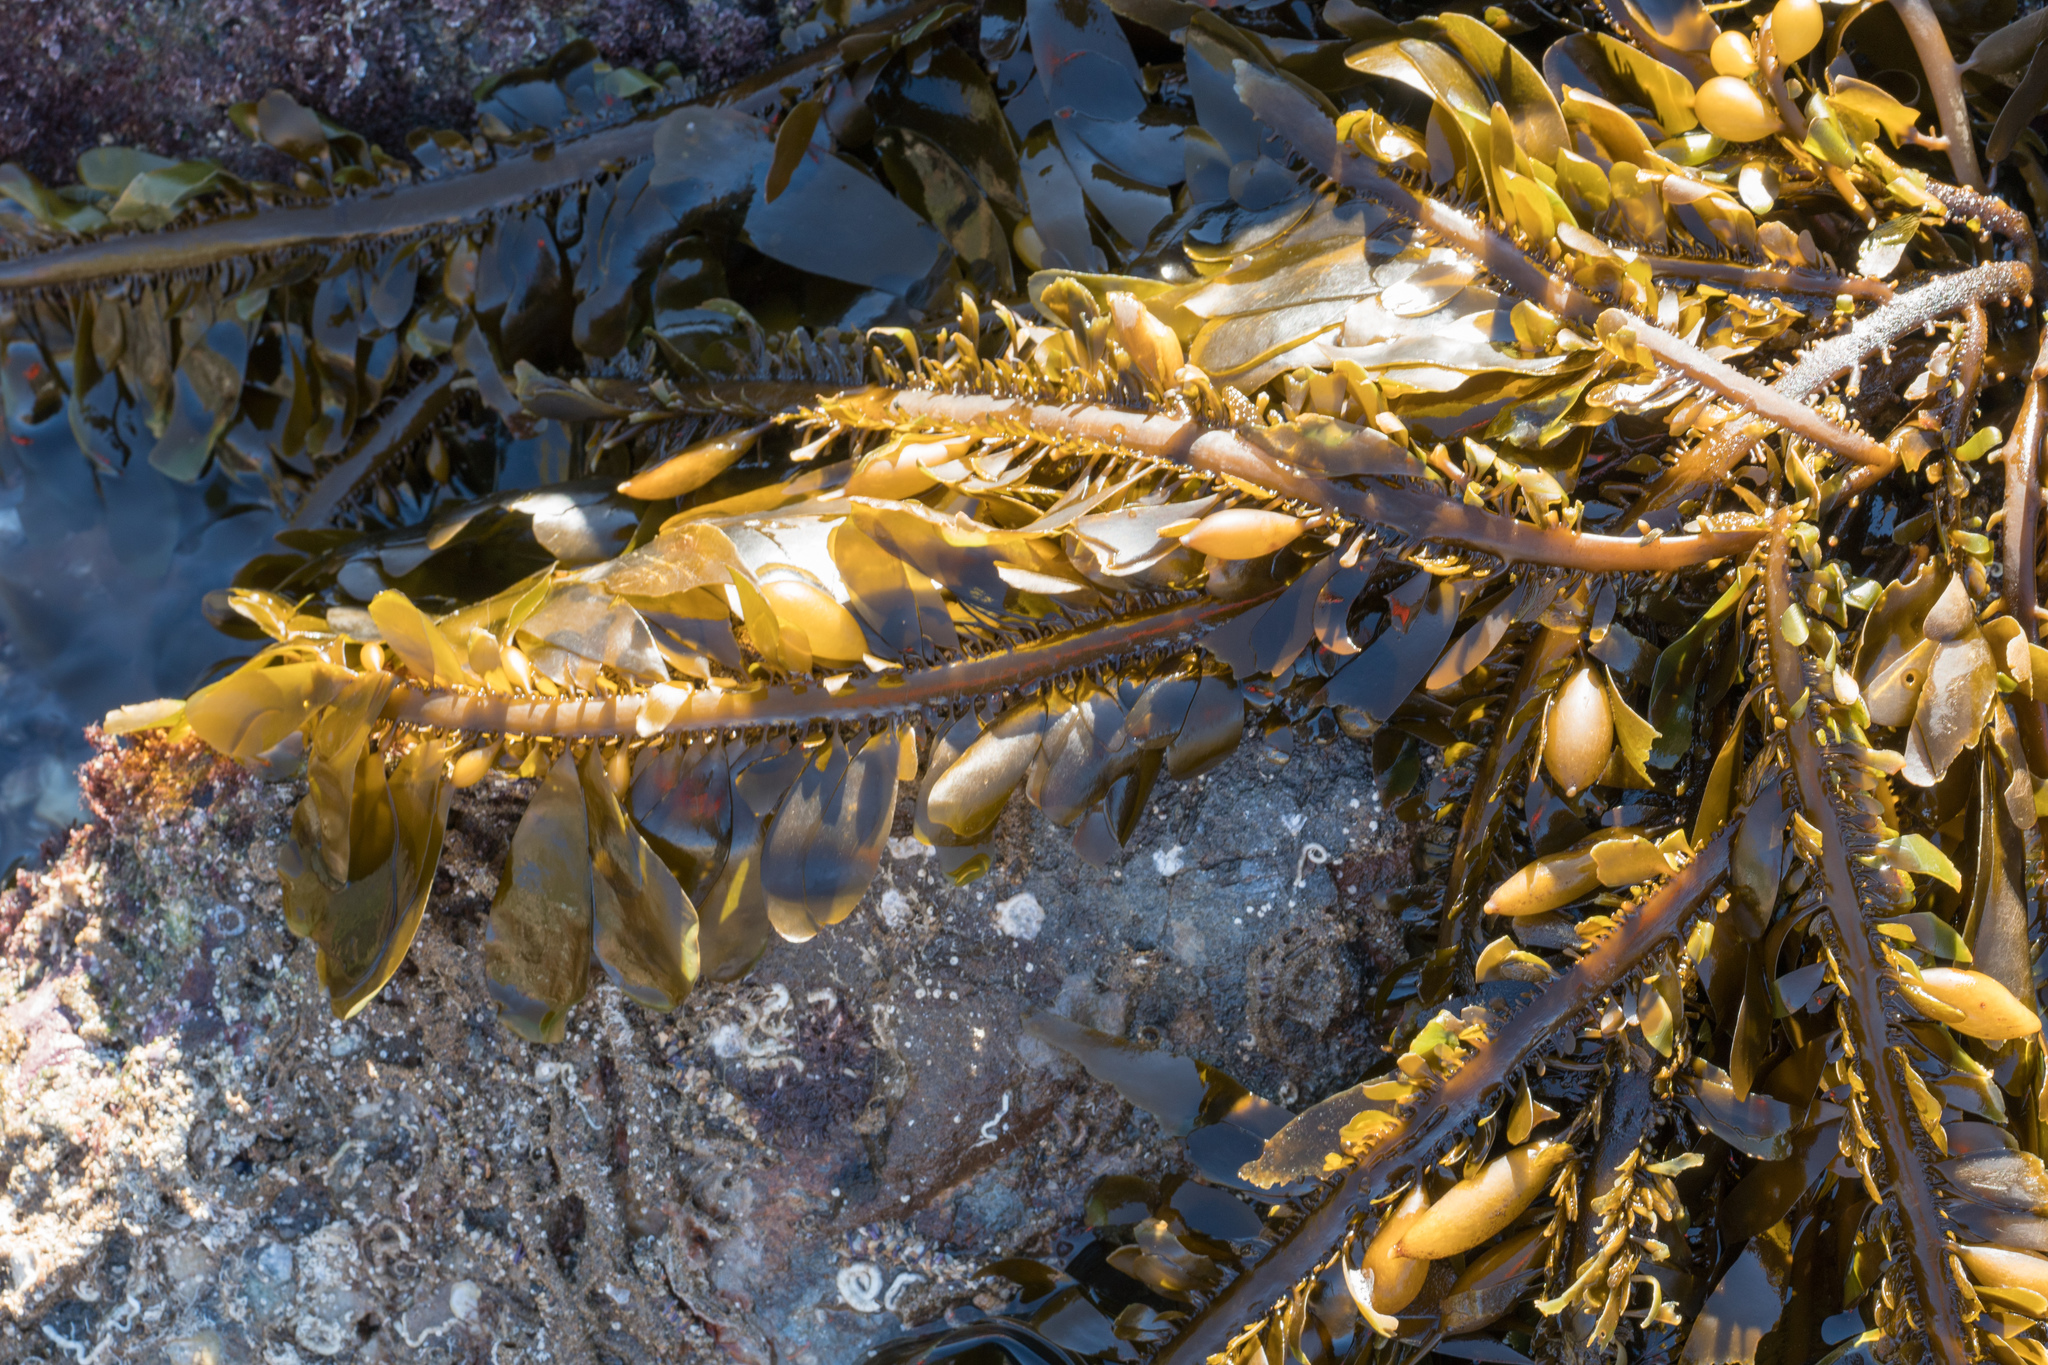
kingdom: Chromista
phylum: Ochrophyta
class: Phaeophyceae
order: Laminariales
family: Lessoniaceae
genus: Egregia
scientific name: Egregia menziesii
